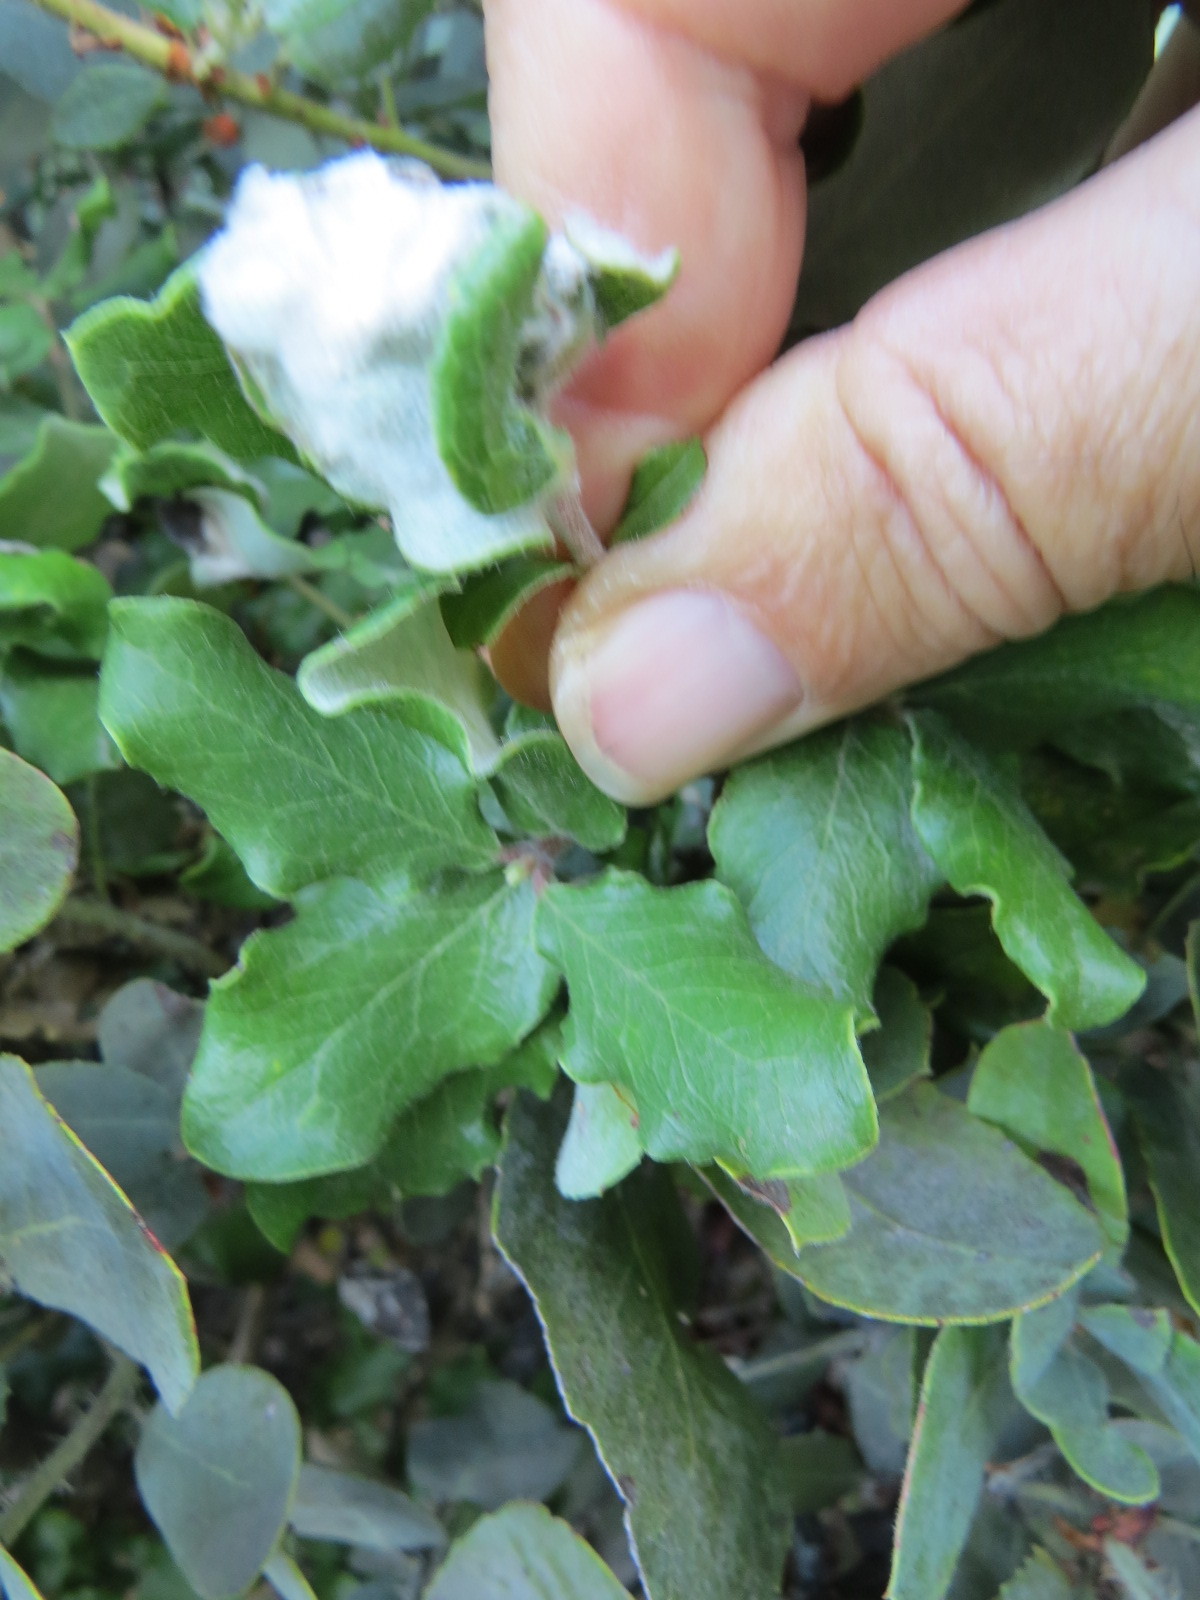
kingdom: Plantae
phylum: Tracheophyta
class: Magnoliopsida
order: Garryales
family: Garryaceae
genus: Garrya
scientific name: Garrya elliptica
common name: Silk-tassel
